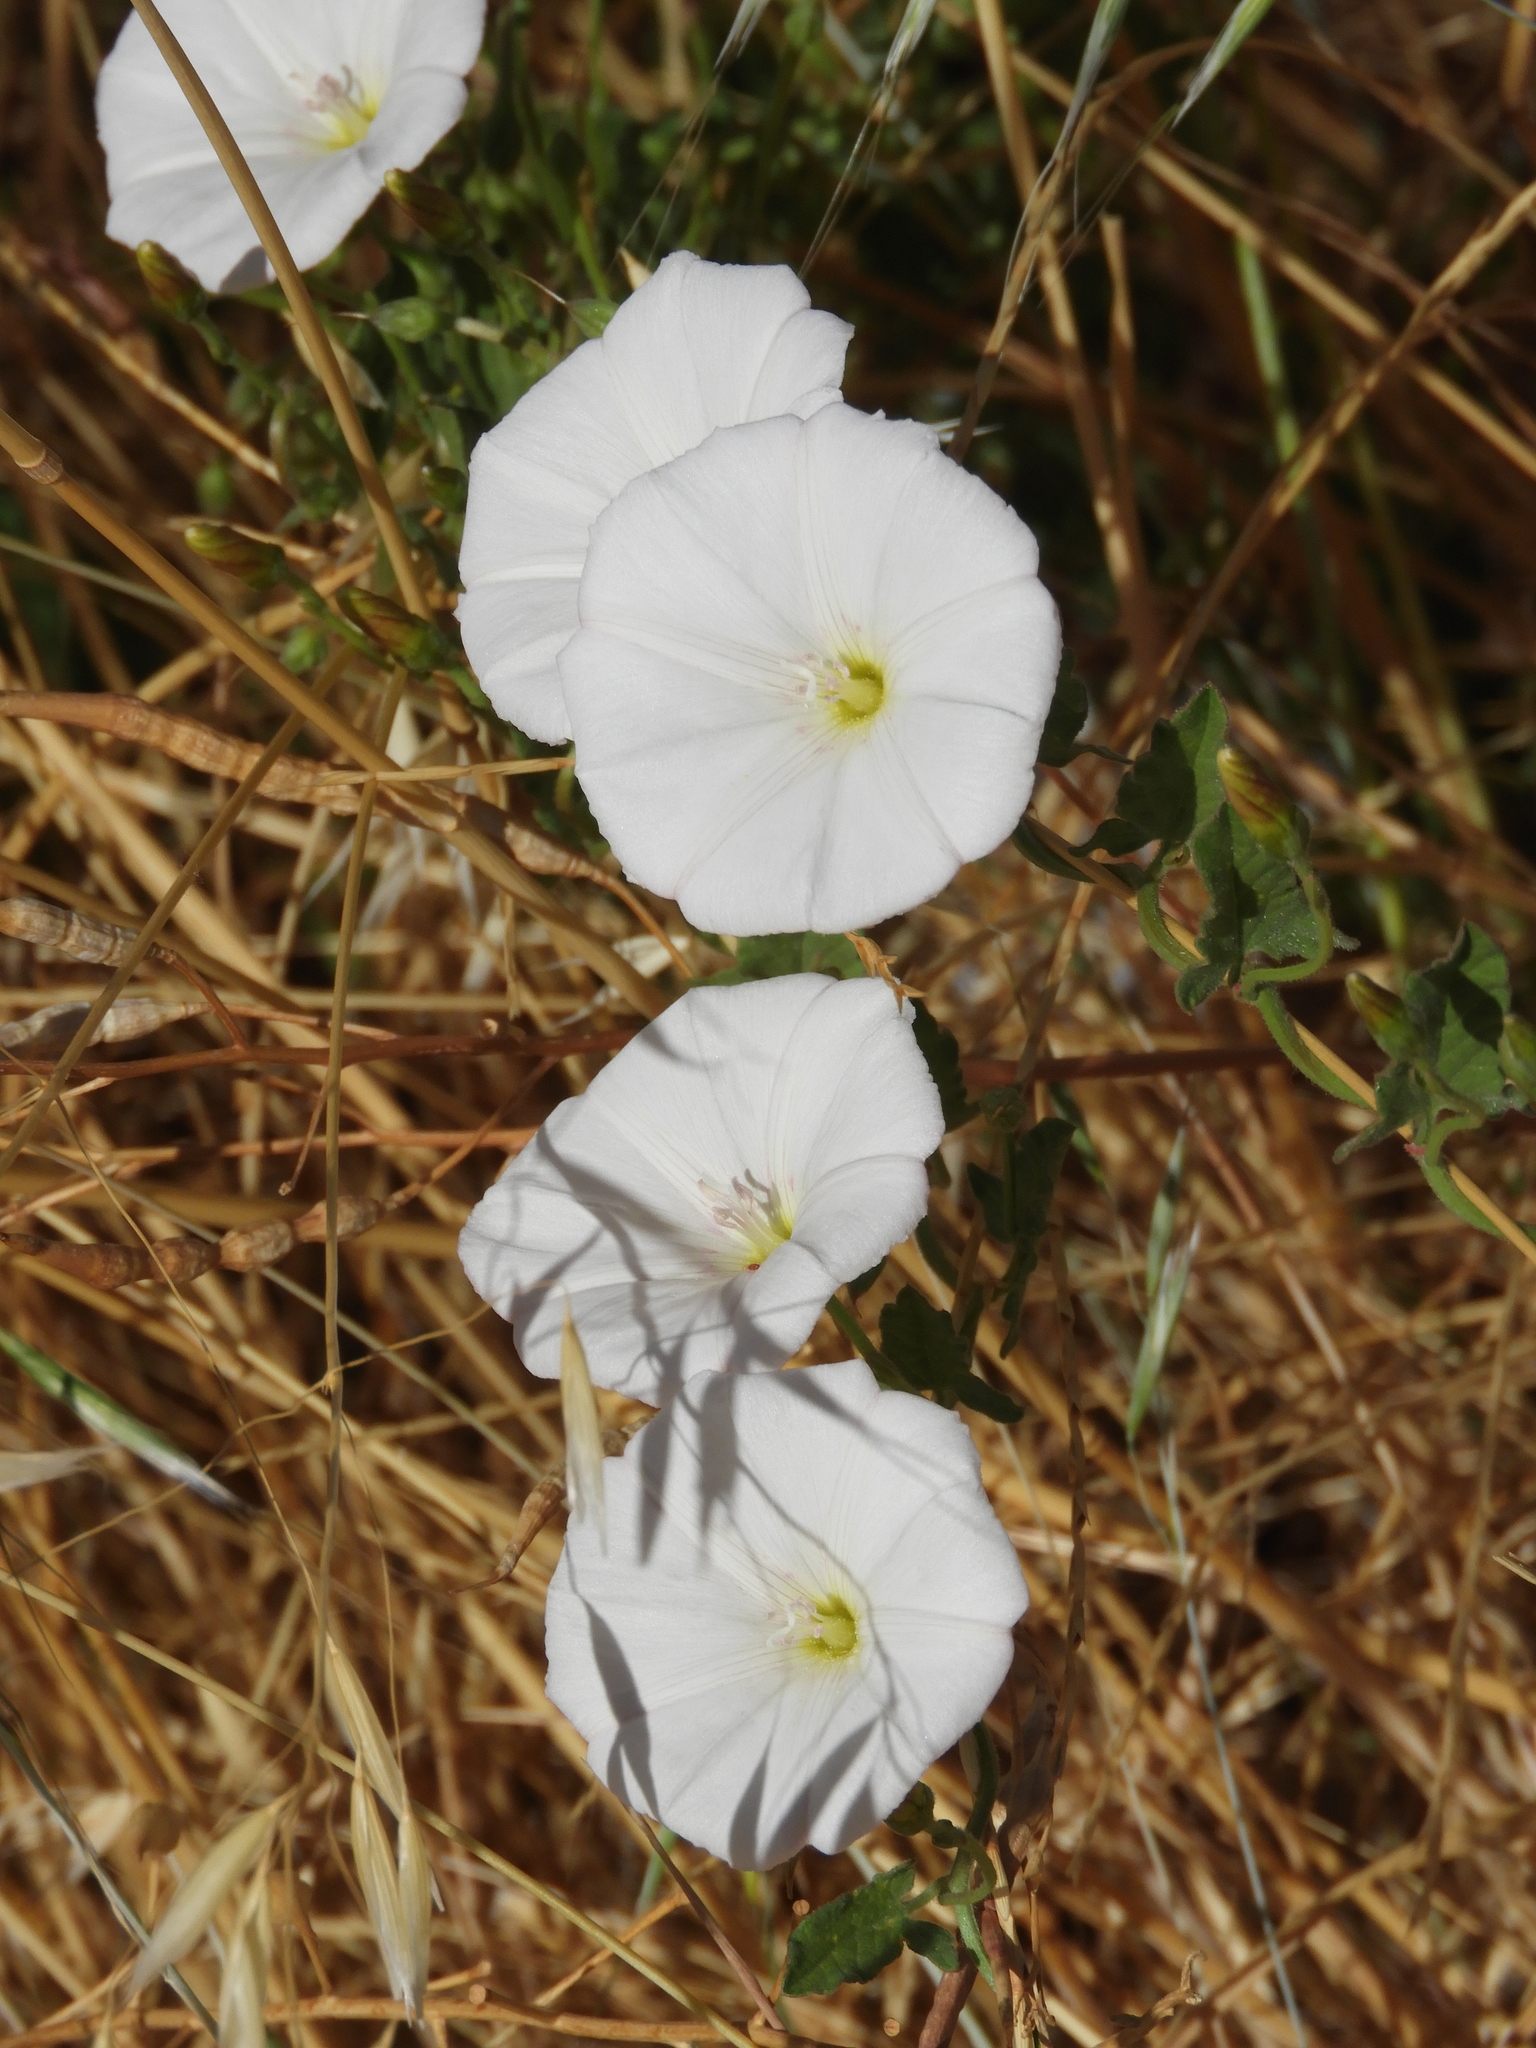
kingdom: Plantae
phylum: Tracheophyta
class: Magnoliopsida
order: Solanales
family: Convolvulaceae
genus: Convolvulus
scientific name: Convolvulus arvensis
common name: Field bindweed
